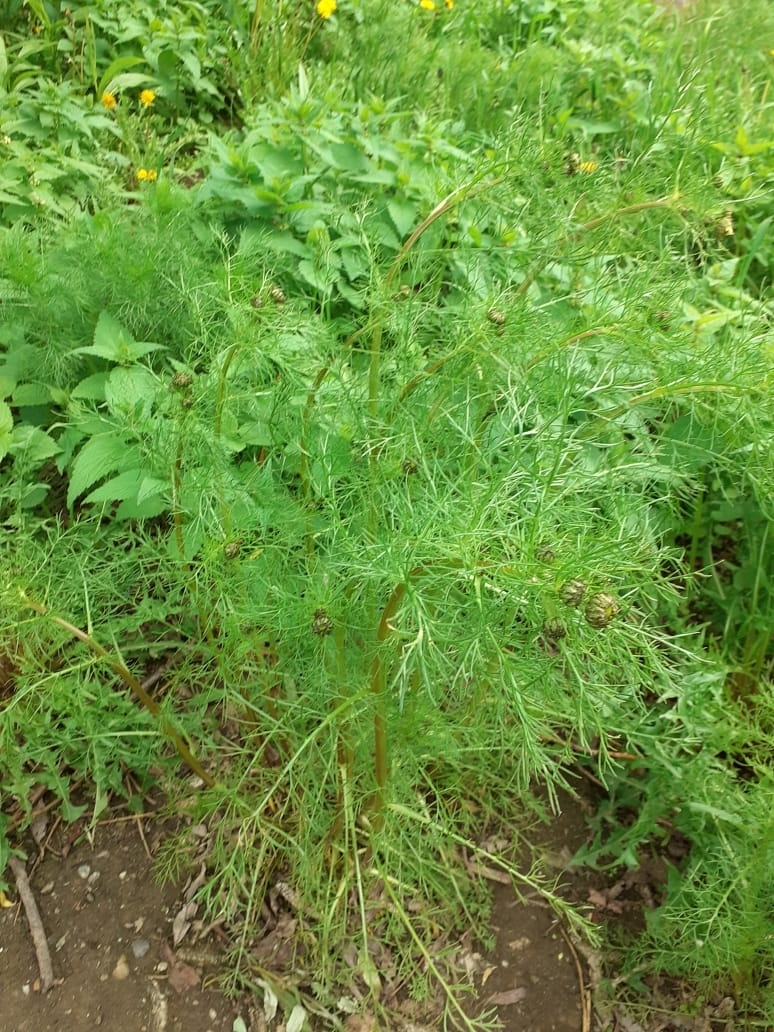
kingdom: Plantae
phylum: Tracheophyta
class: Magnoliopsida
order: Asterales
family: Asteraceae
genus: Tripleurospermum
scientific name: Tripleurospermum inodorum
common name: Scentless mayweed
